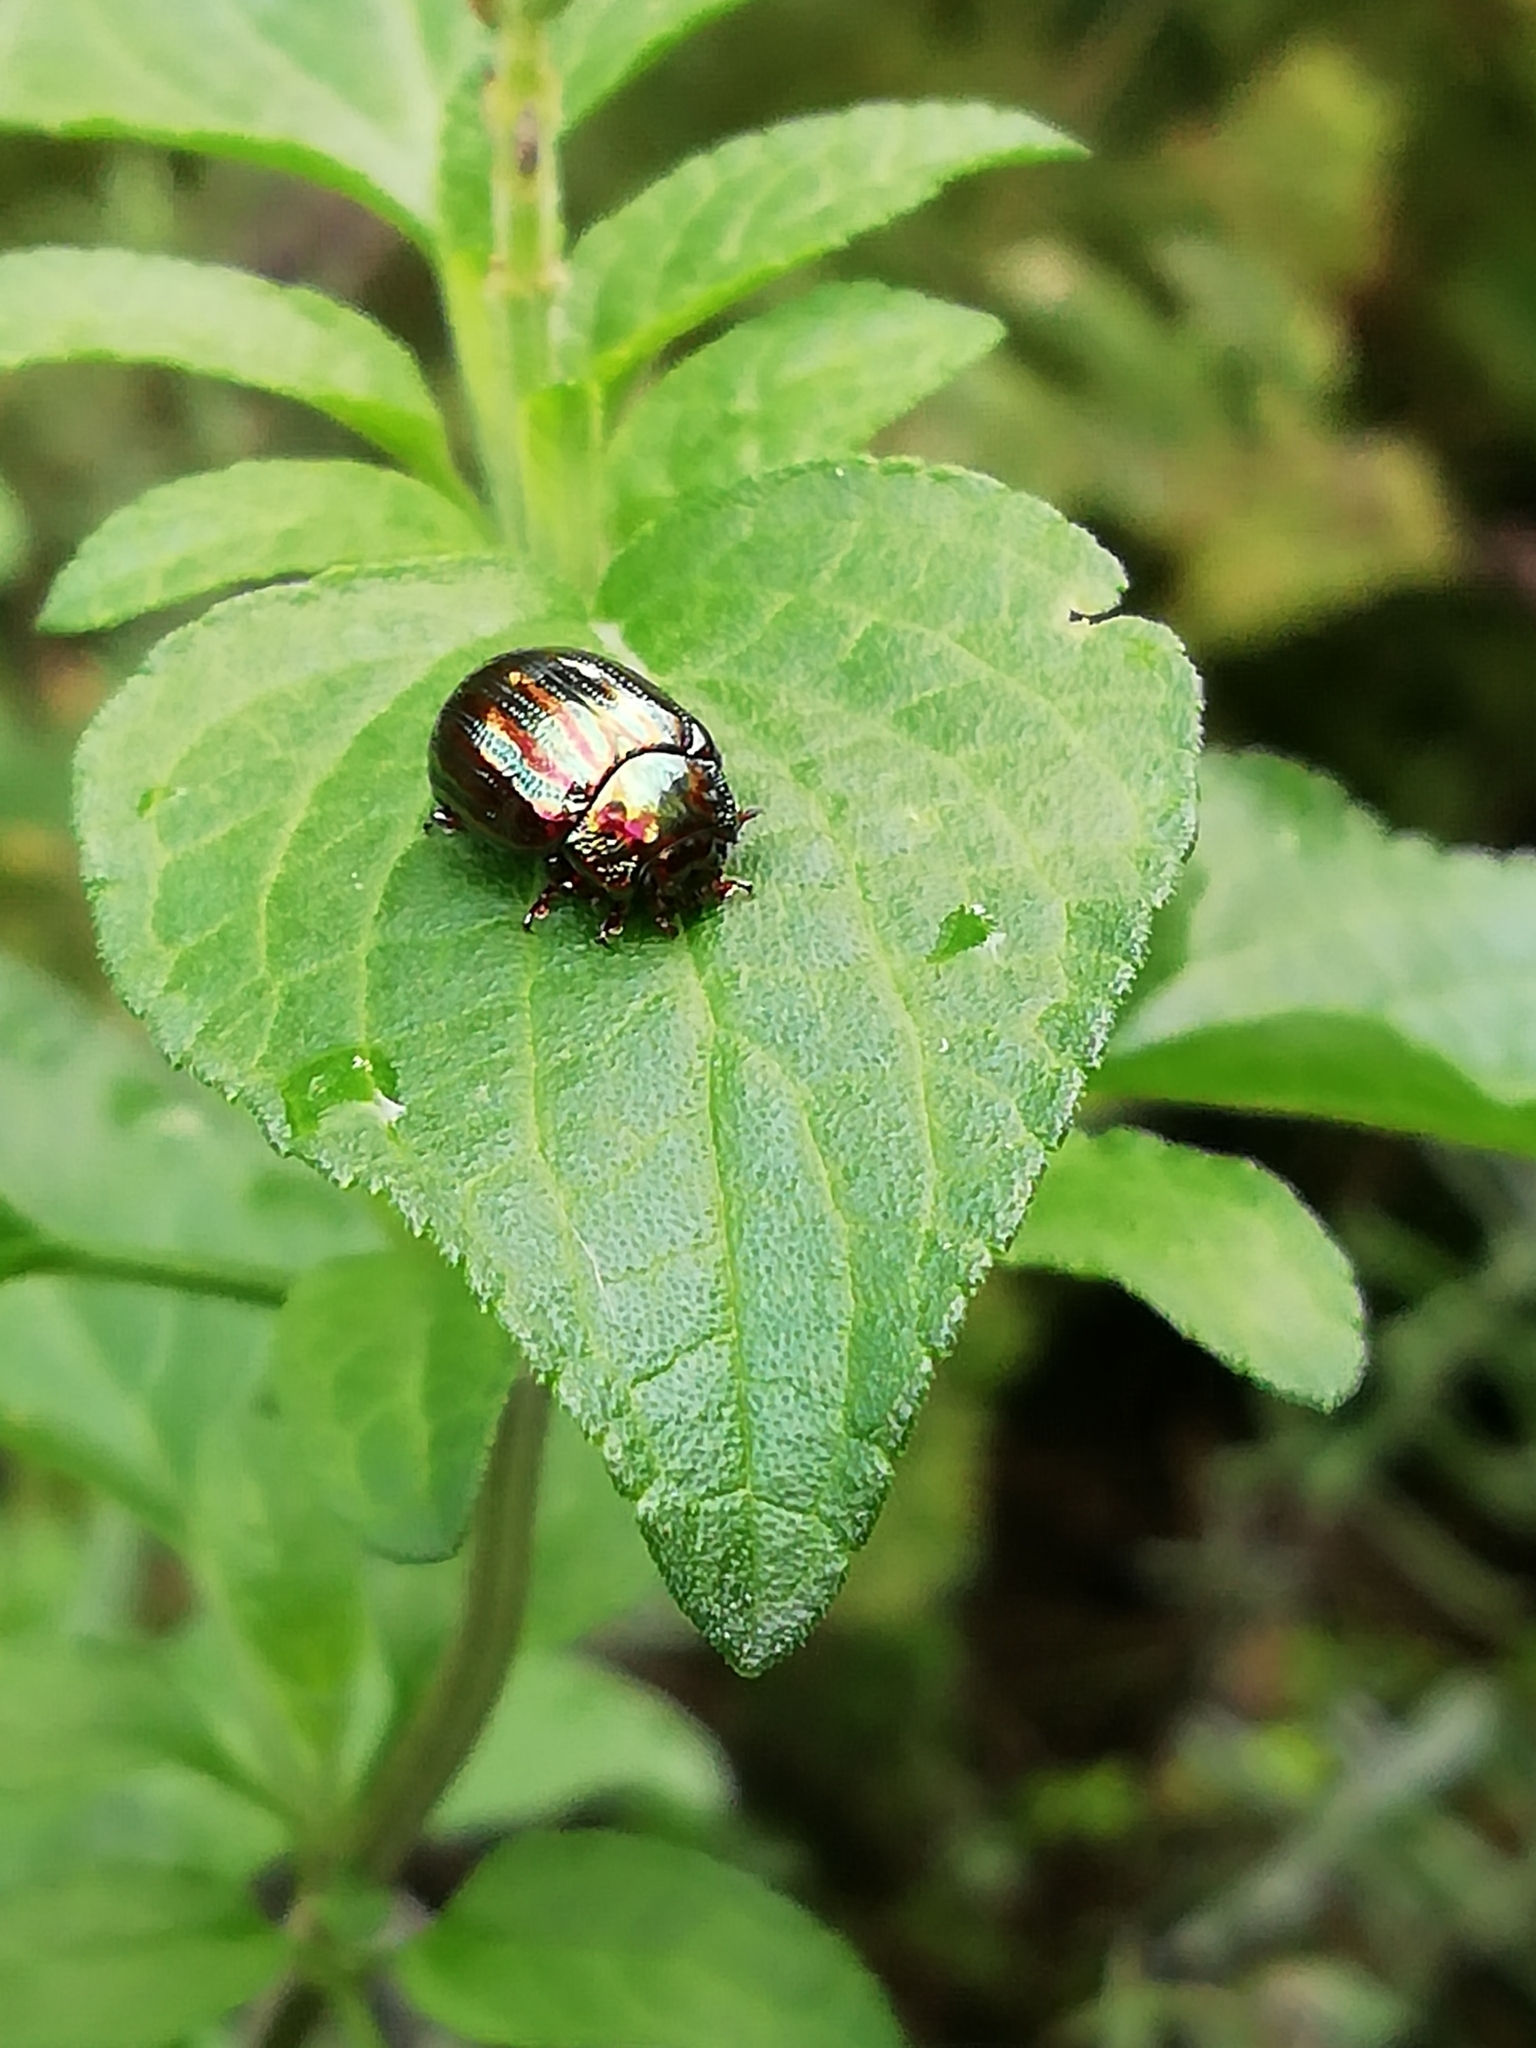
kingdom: Animalia
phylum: Arthropoda
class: Insecta
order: Coleoptera
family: Chrysomelidae
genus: Chrysolina
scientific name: Chrysolina americana
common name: Rosemary beetle
